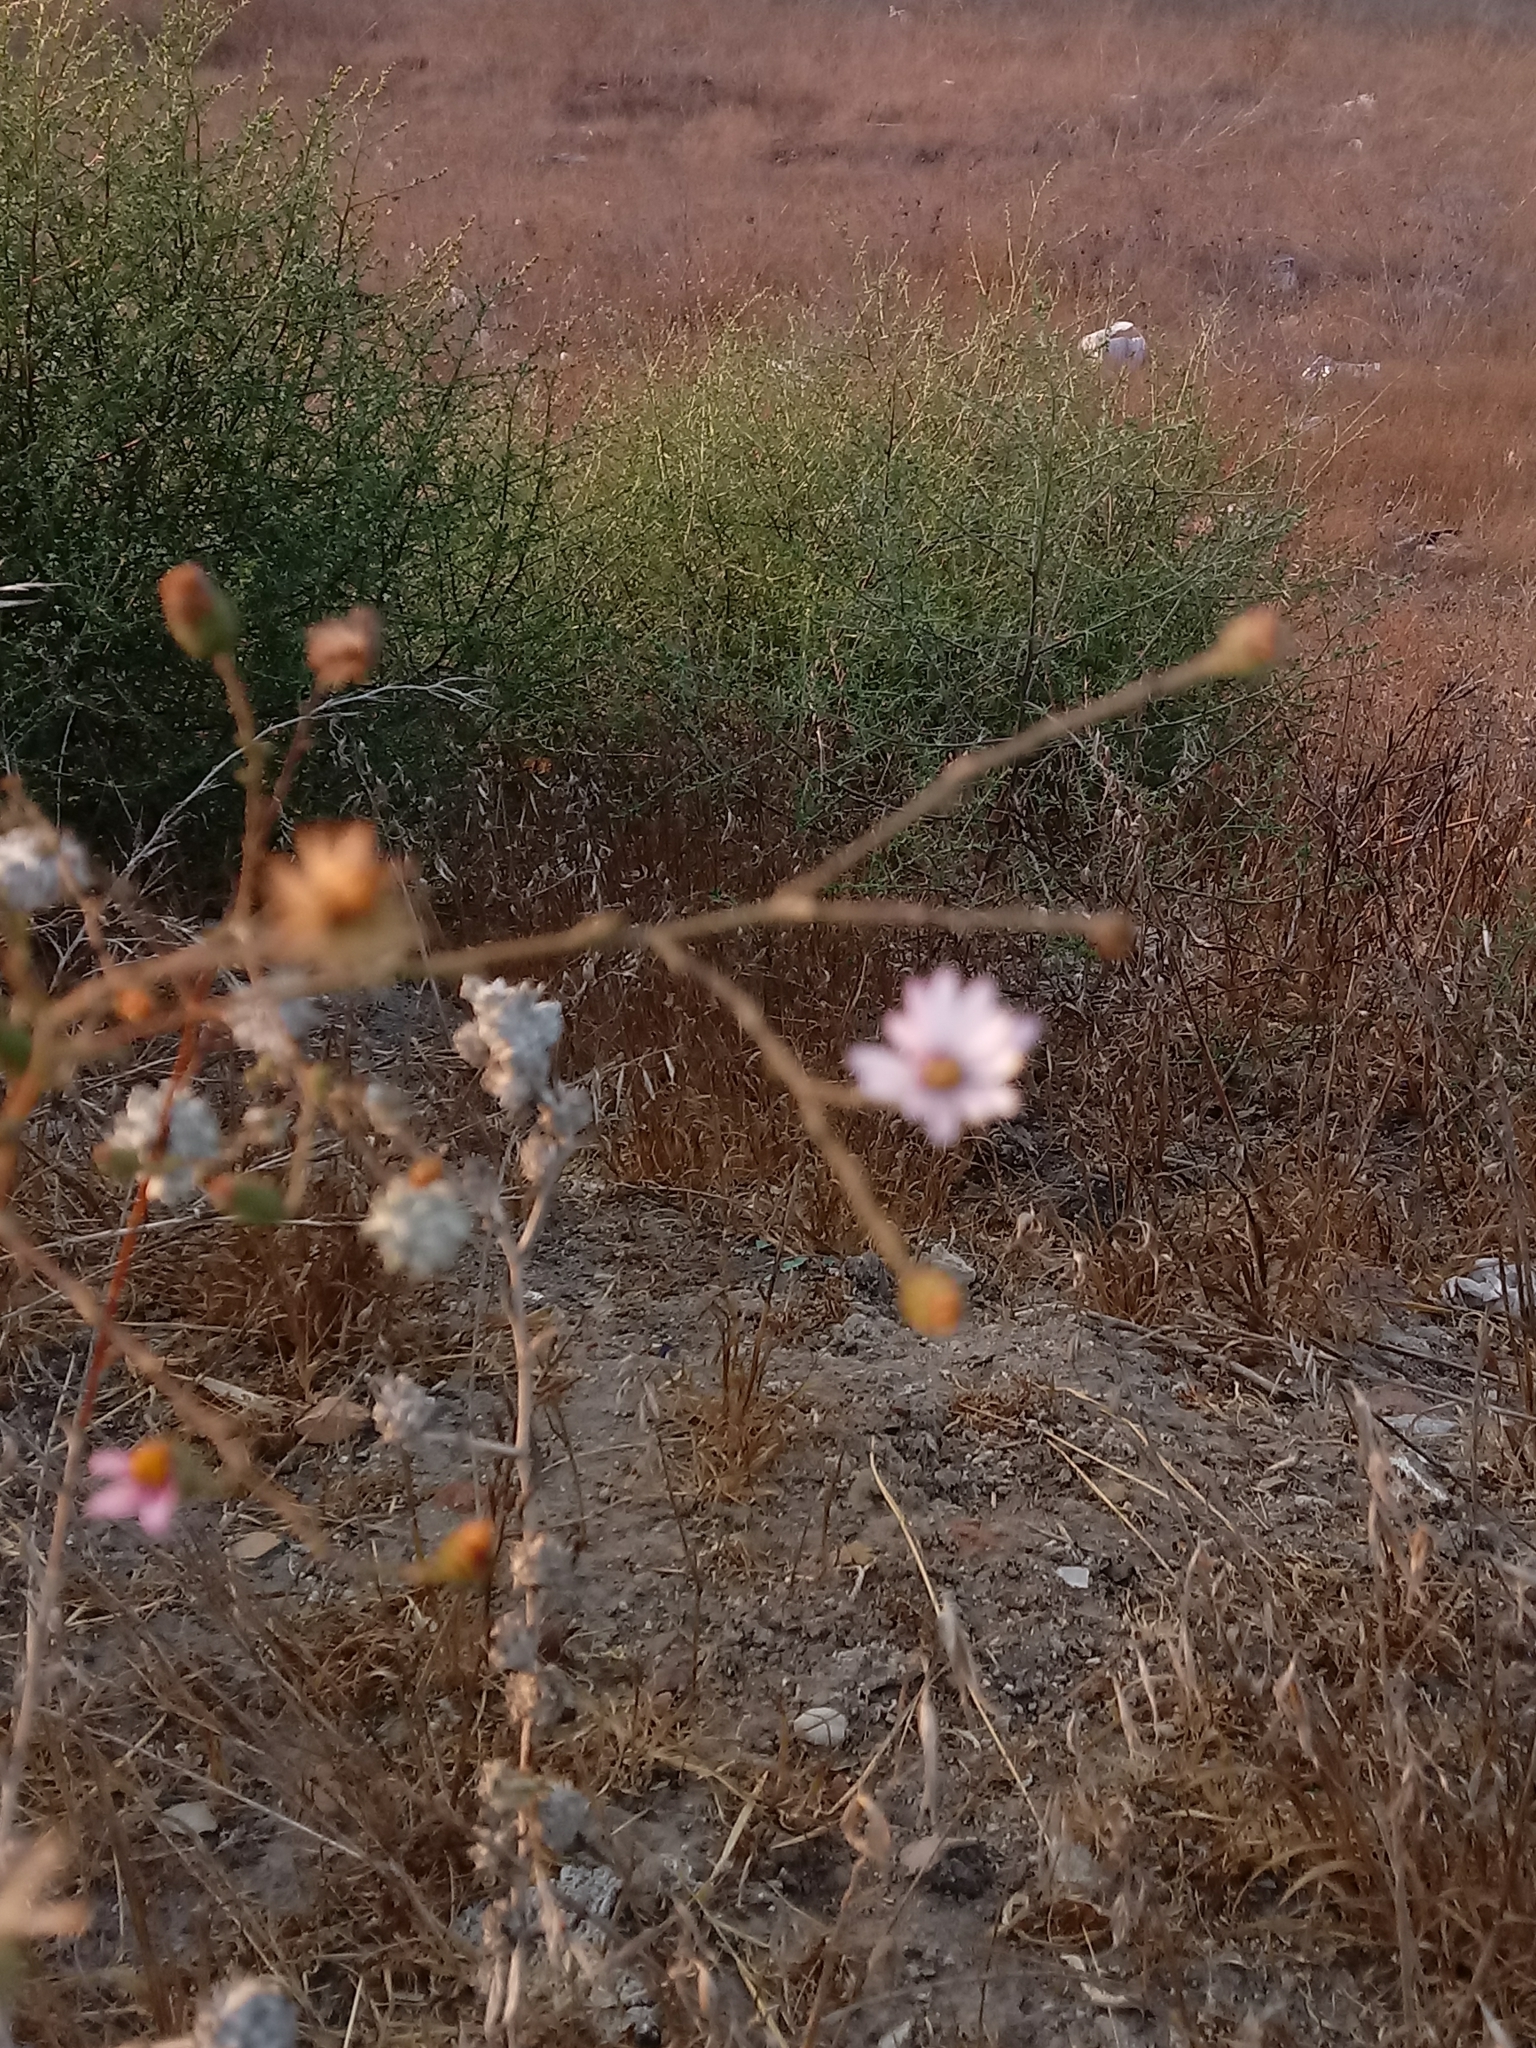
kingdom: Plantae
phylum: Tracheophyta
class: Magnoliopsida
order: Asterales
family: Asteraceae
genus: Corethrogyne
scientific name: Corethrogyne filaginifolia
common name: Sand-aster
